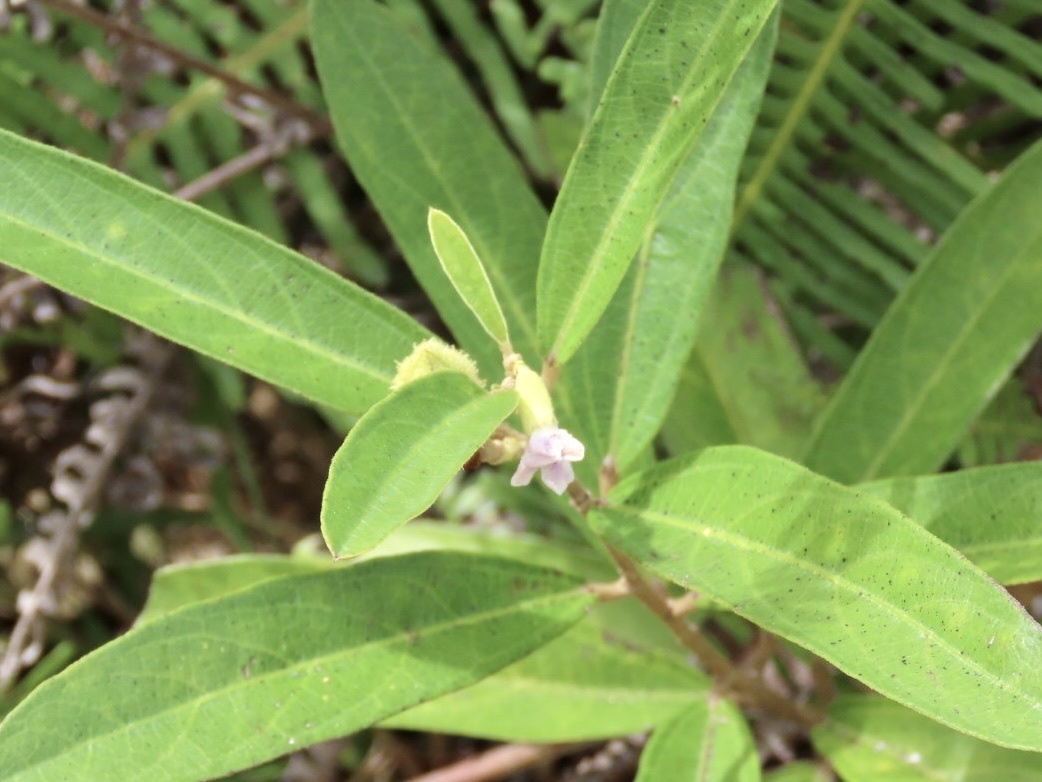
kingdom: Plantae
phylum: Tracheophyta
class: Magnoliopsida
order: Malvales
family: Malvaceae
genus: Helicteres
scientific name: Helicteres angustifolia
